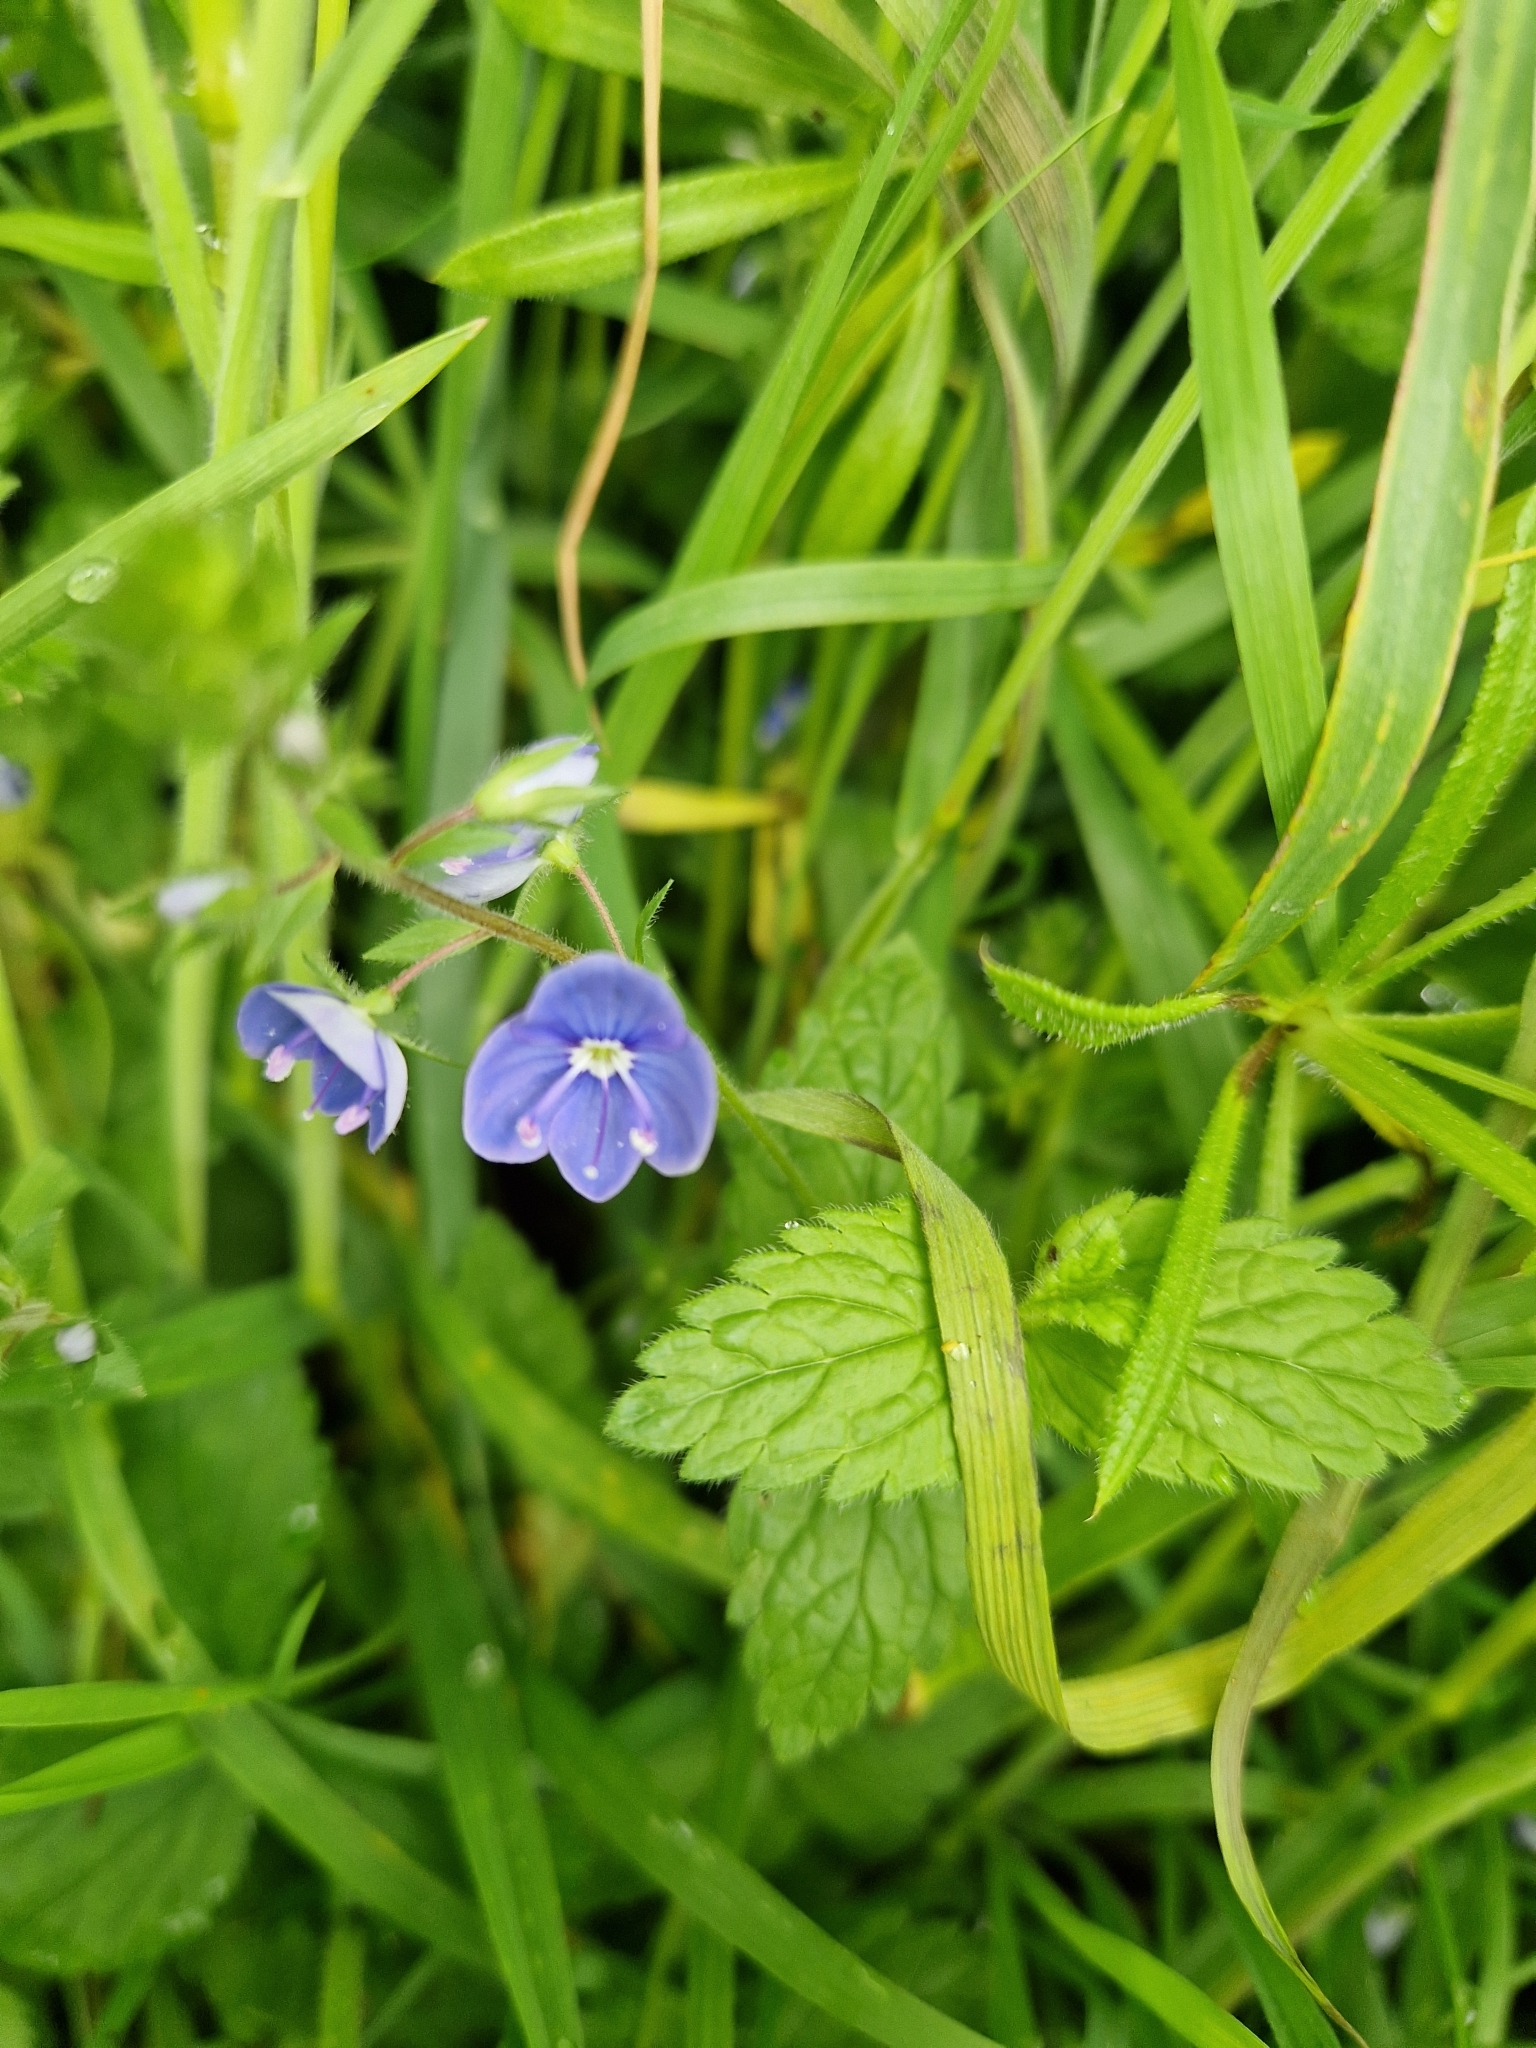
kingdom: Plantae
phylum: Tracheophyta
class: Magnoliopsida
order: Lamiales
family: Plantaginaceae
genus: Veronica
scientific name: Veronica chamaedrys
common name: Germander speedwell
